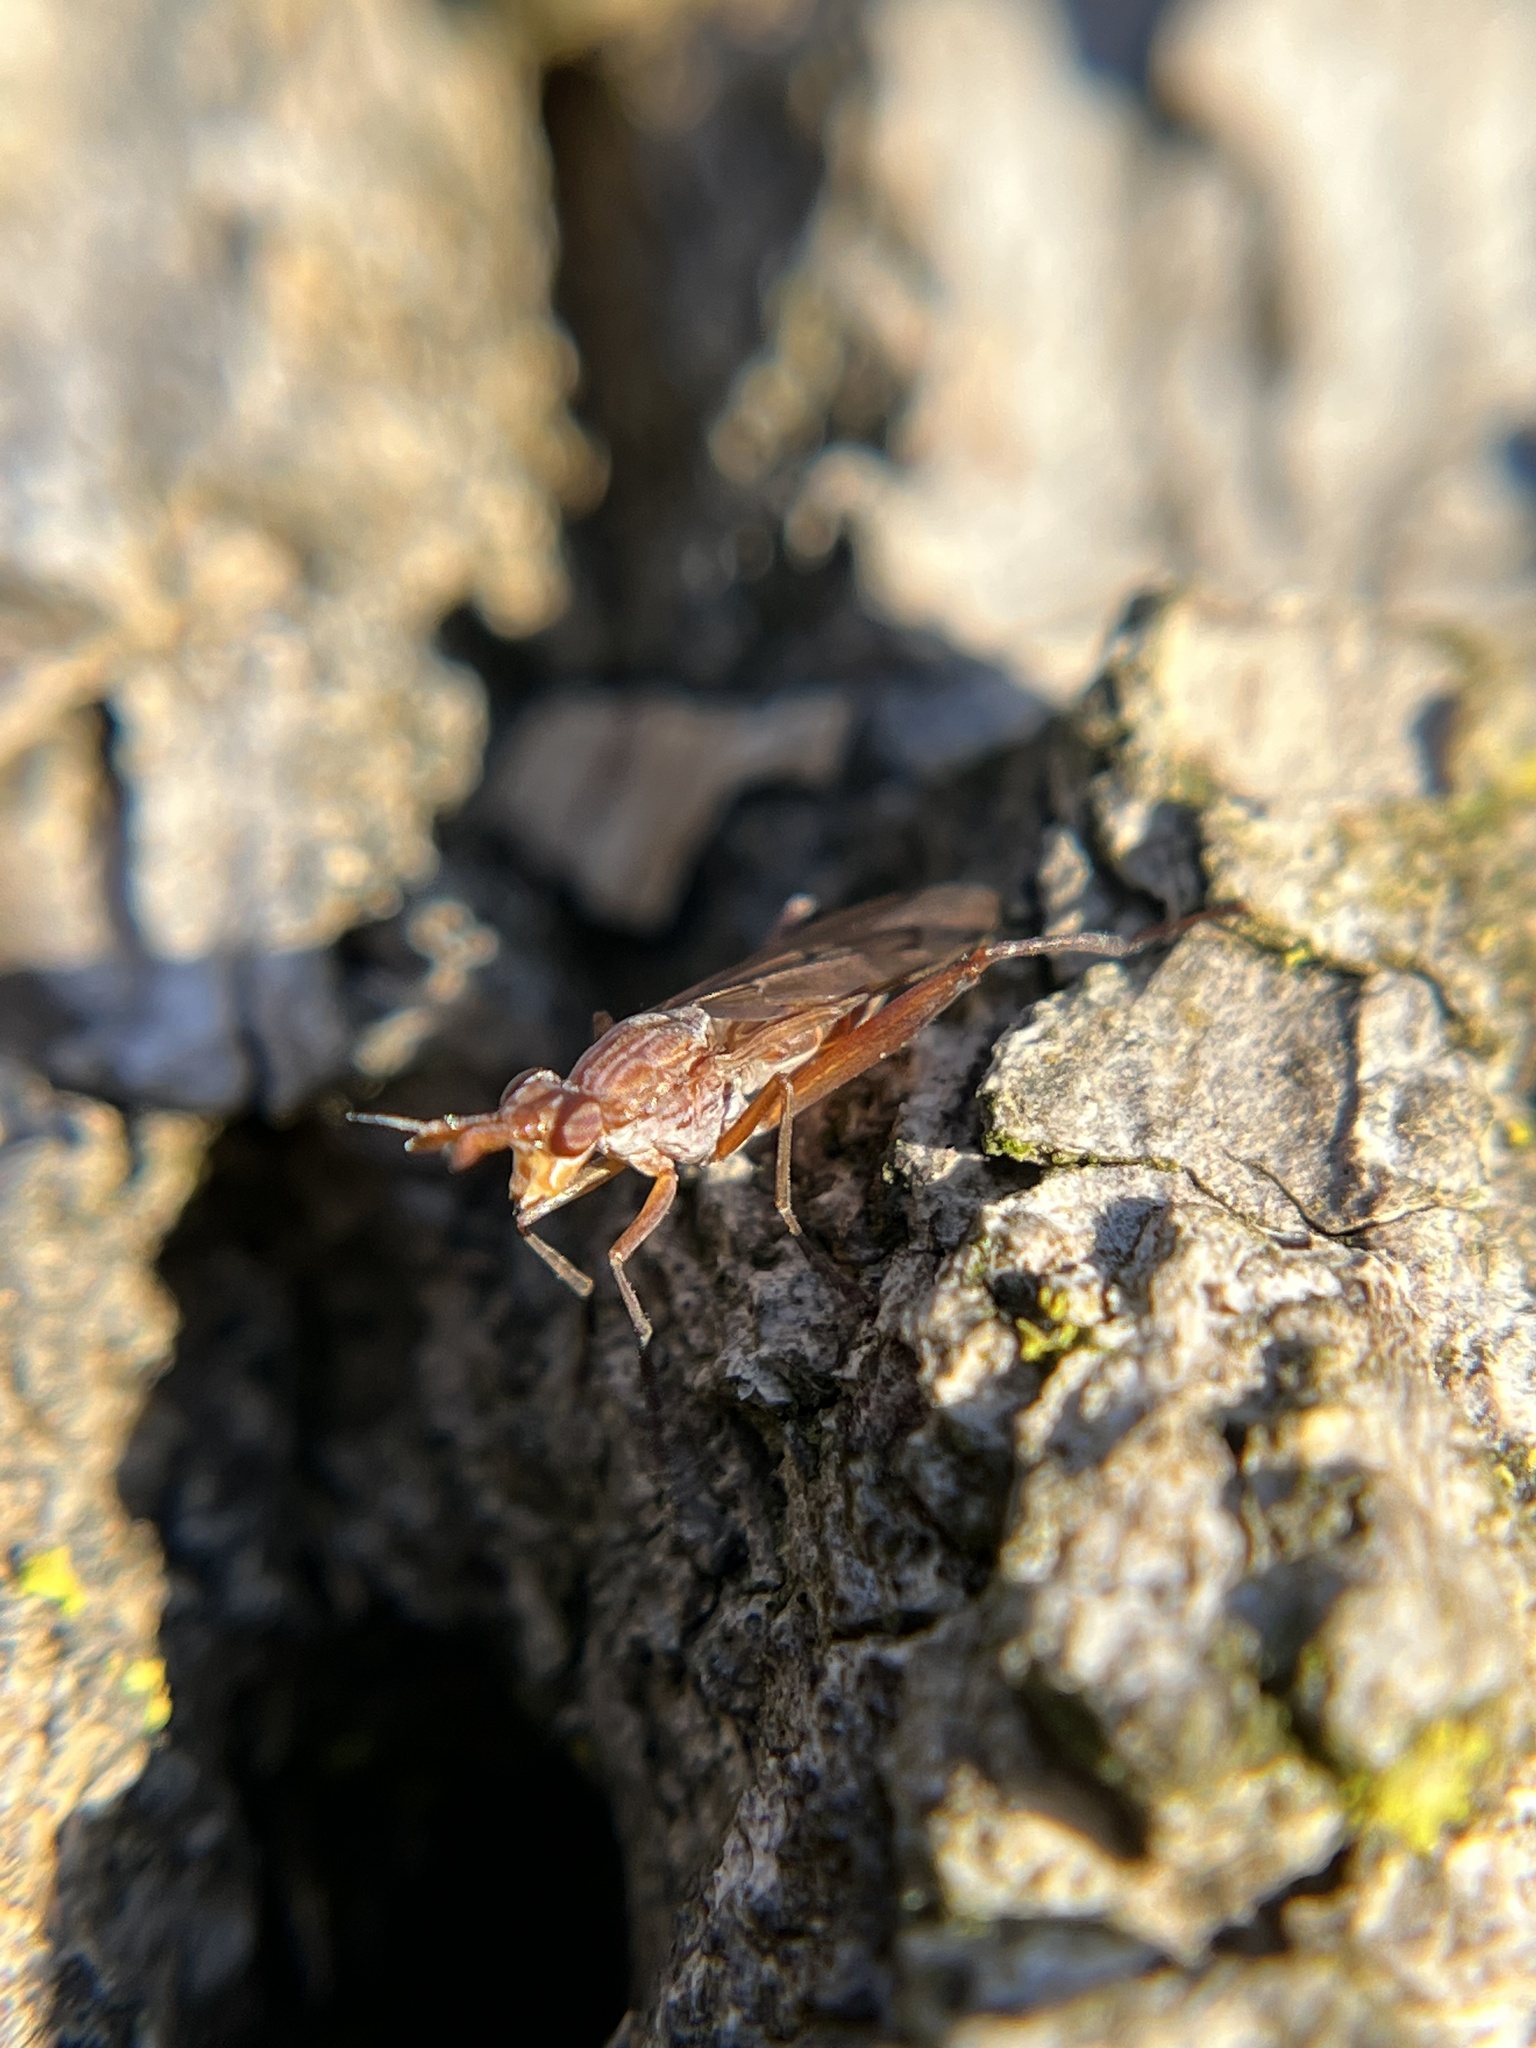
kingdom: Animalia
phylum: Arthropoda
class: Insecta
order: Diptera
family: Sciomyzidae
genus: Sepedon
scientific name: Sepedon
